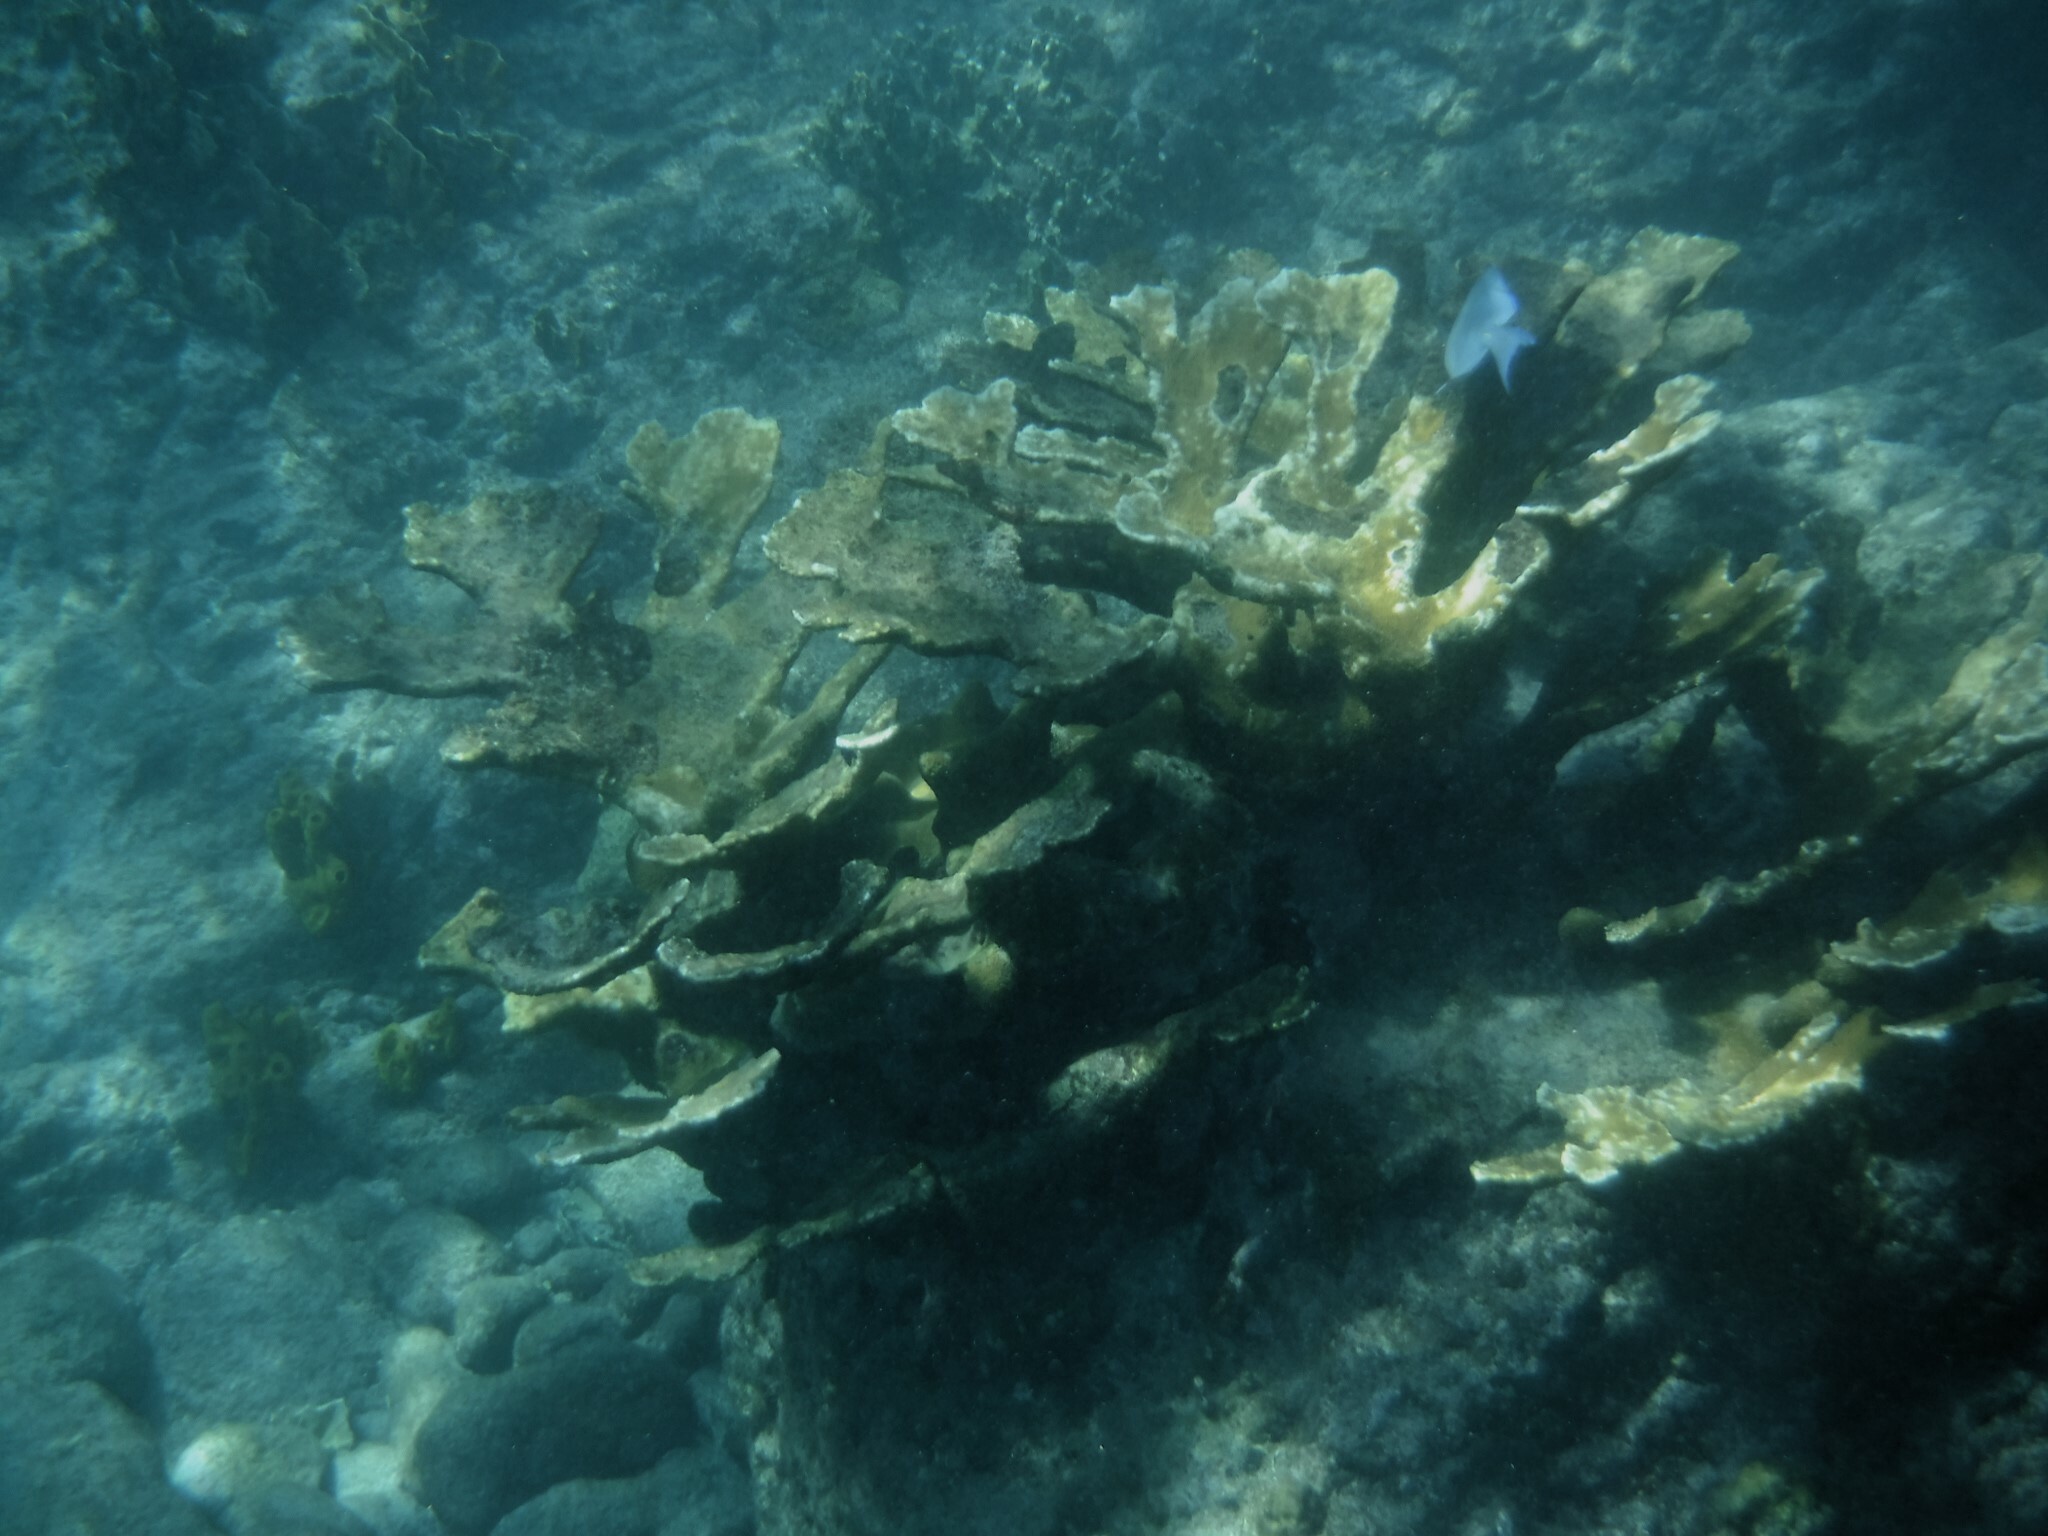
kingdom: Animalia
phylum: Cnidaria
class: Anthozoa
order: Scleractinia
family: Acroporidae
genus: Acropora
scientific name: Acropora palmata
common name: Elkhorn coral
